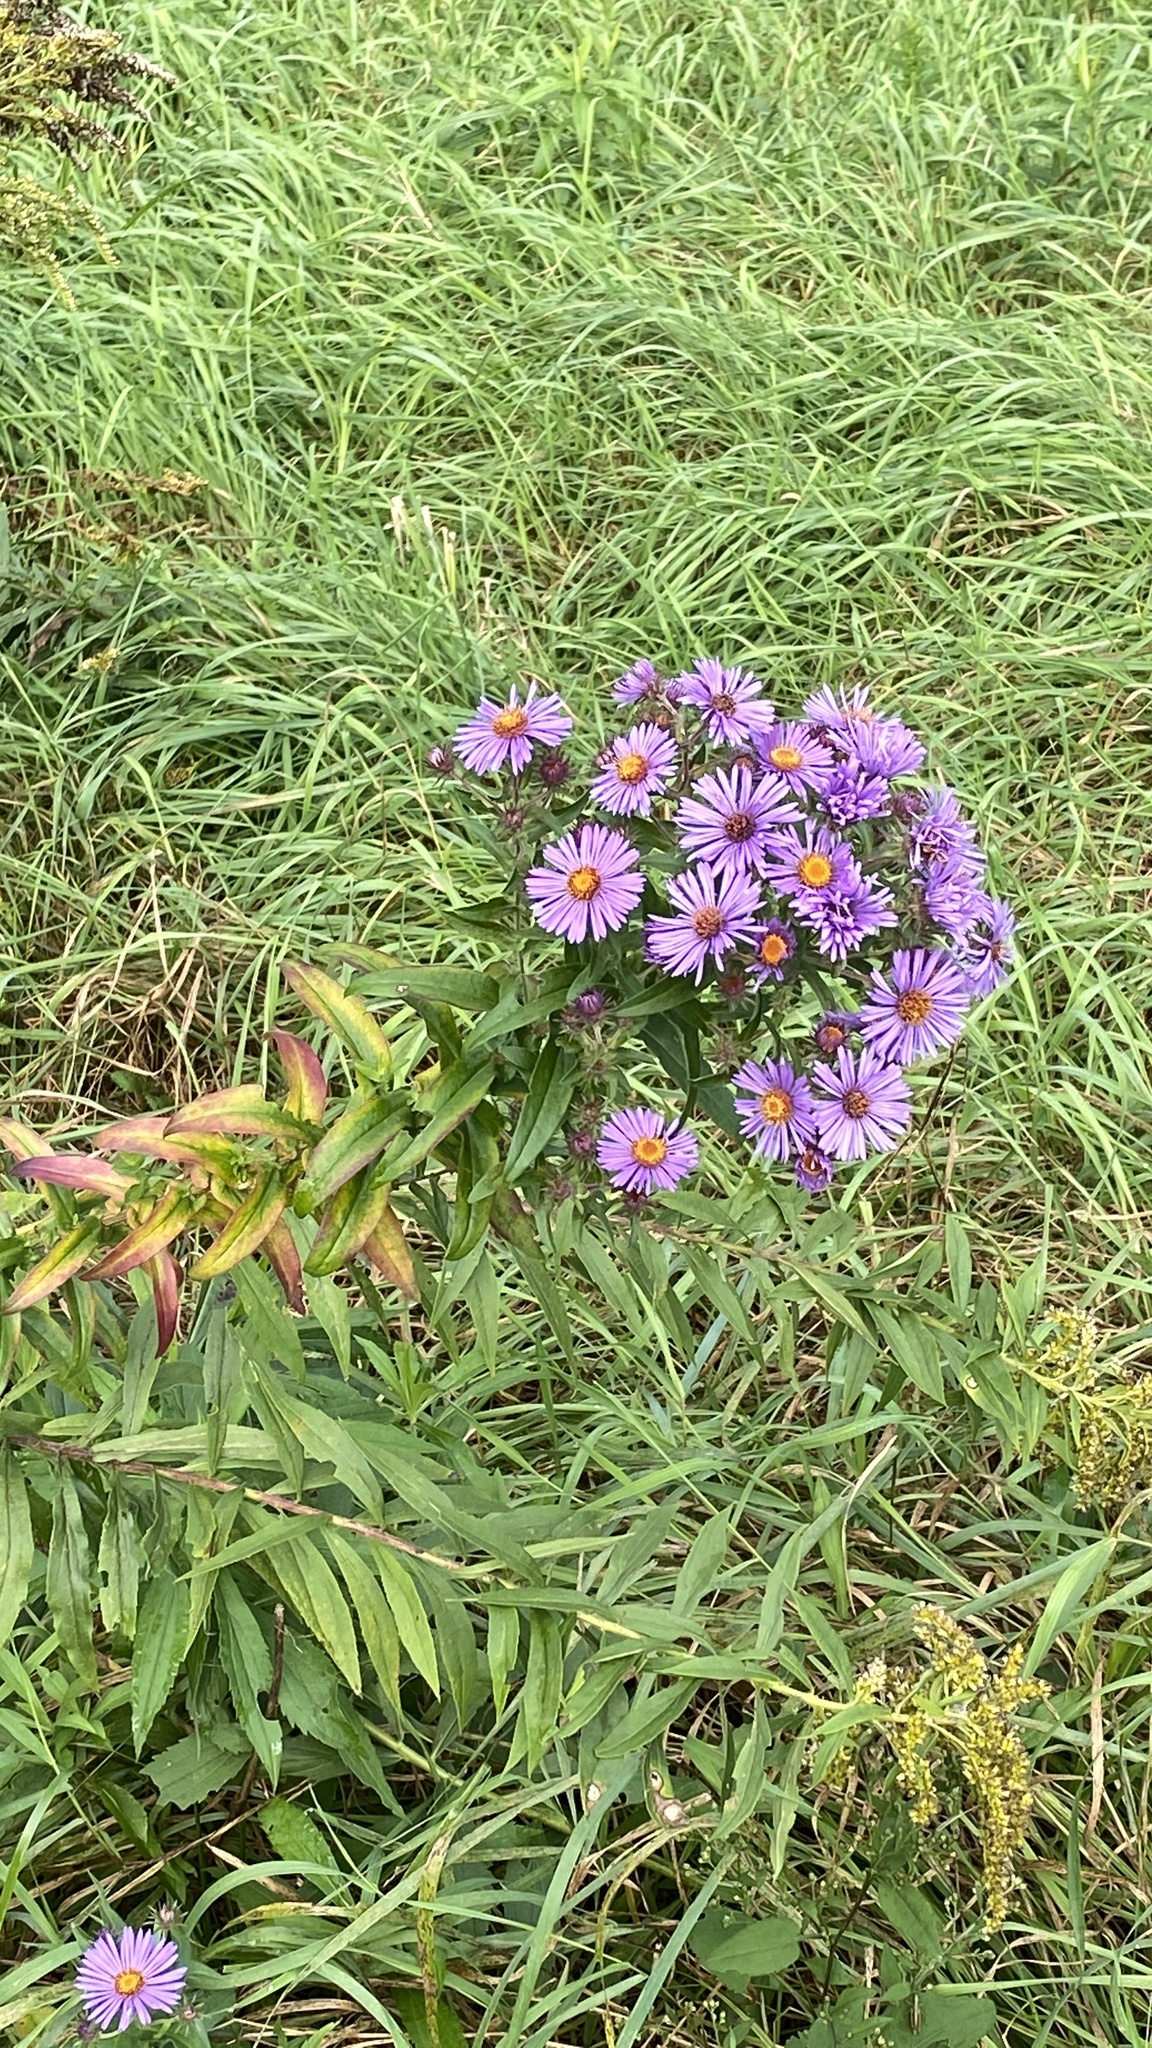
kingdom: Plantae
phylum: Tracheophyta
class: Magnoliopsida
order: Asterales
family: Asteraceae
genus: Symphyotrichum
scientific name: Symphyotrichum novae-angliae
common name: Michaelmas daisy
